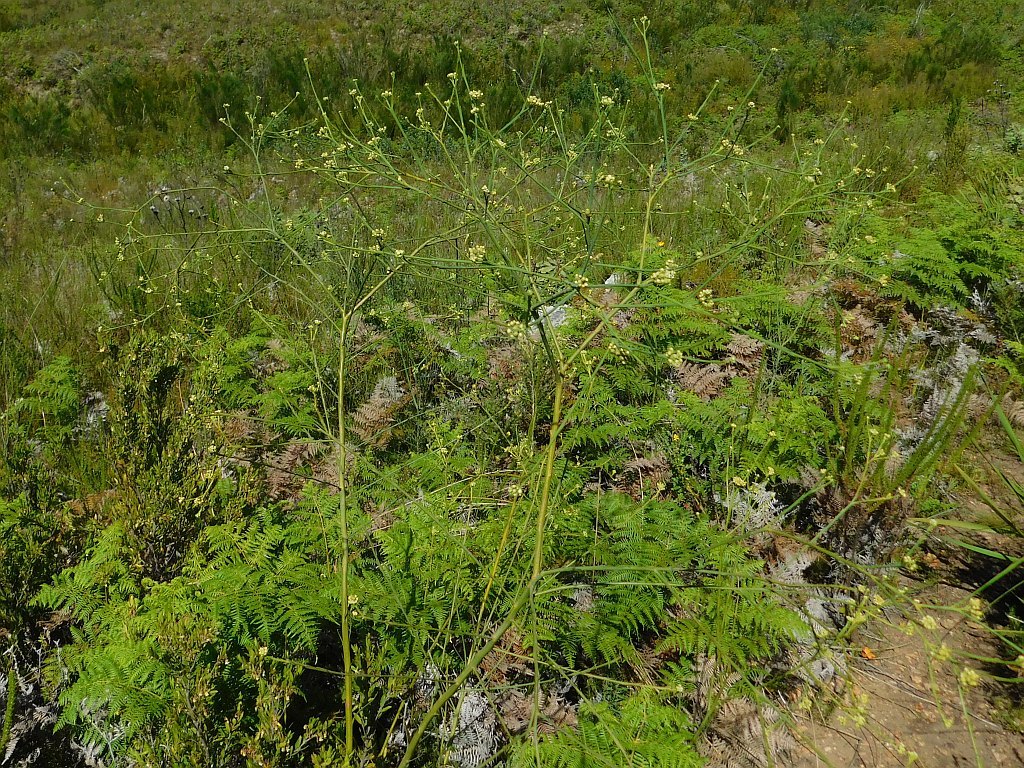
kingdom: Plantae
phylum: Tracheophyta
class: Magnoliopsida
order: Santalales
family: Thesiaceae
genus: Thesium
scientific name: Thesium strictum
